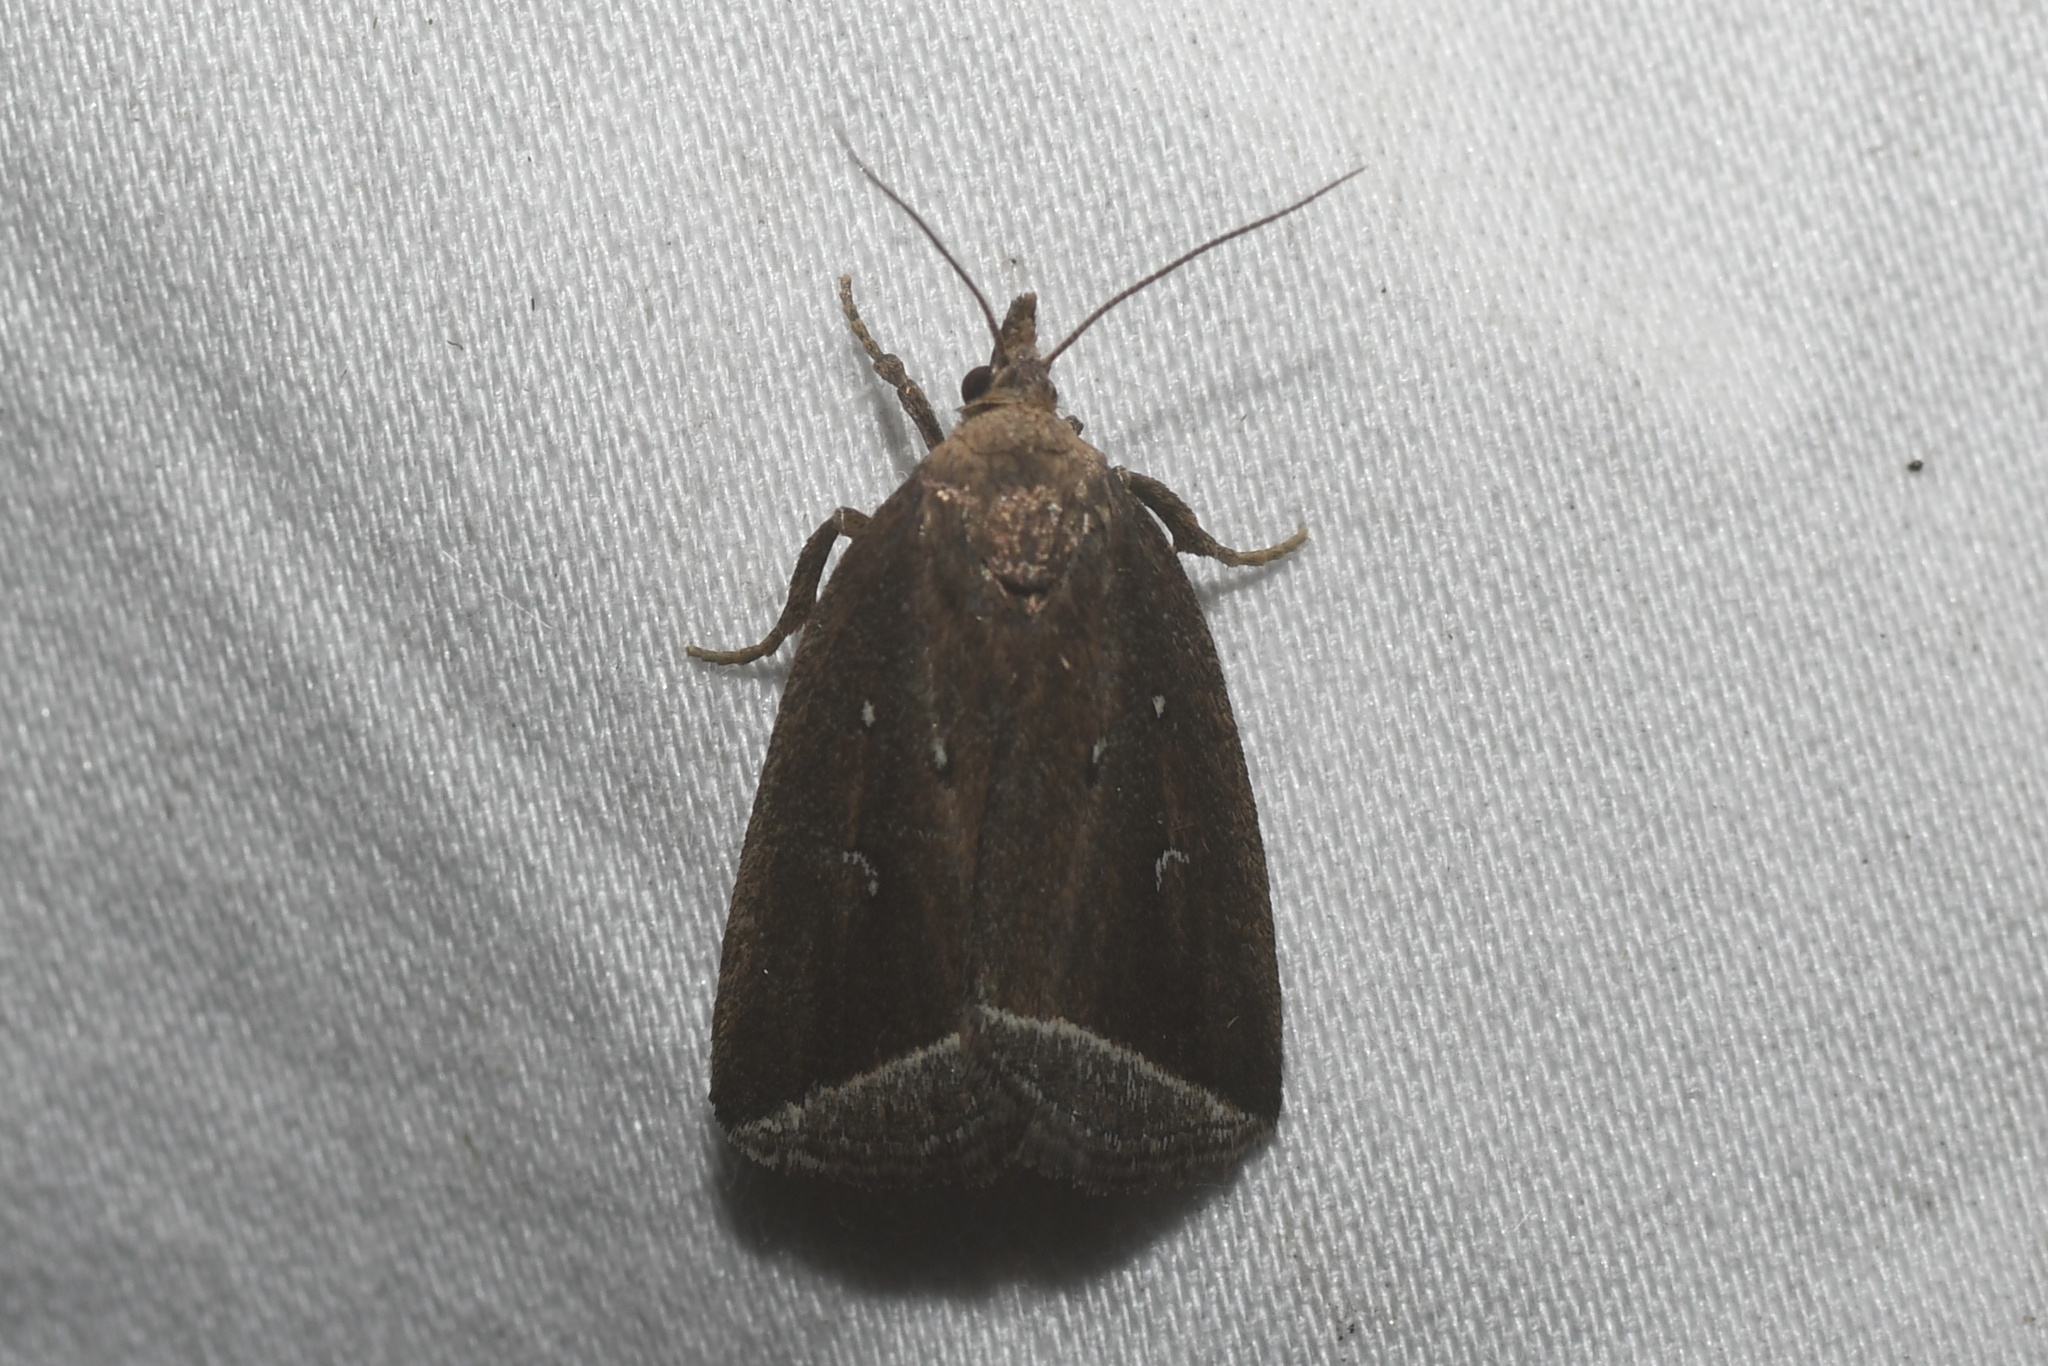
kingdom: Animalia
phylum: Arthropoda
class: Insecta
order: Lepidoptera
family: Erebidae
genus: Capis
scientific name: Capis curvata
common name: Curved halter moth
